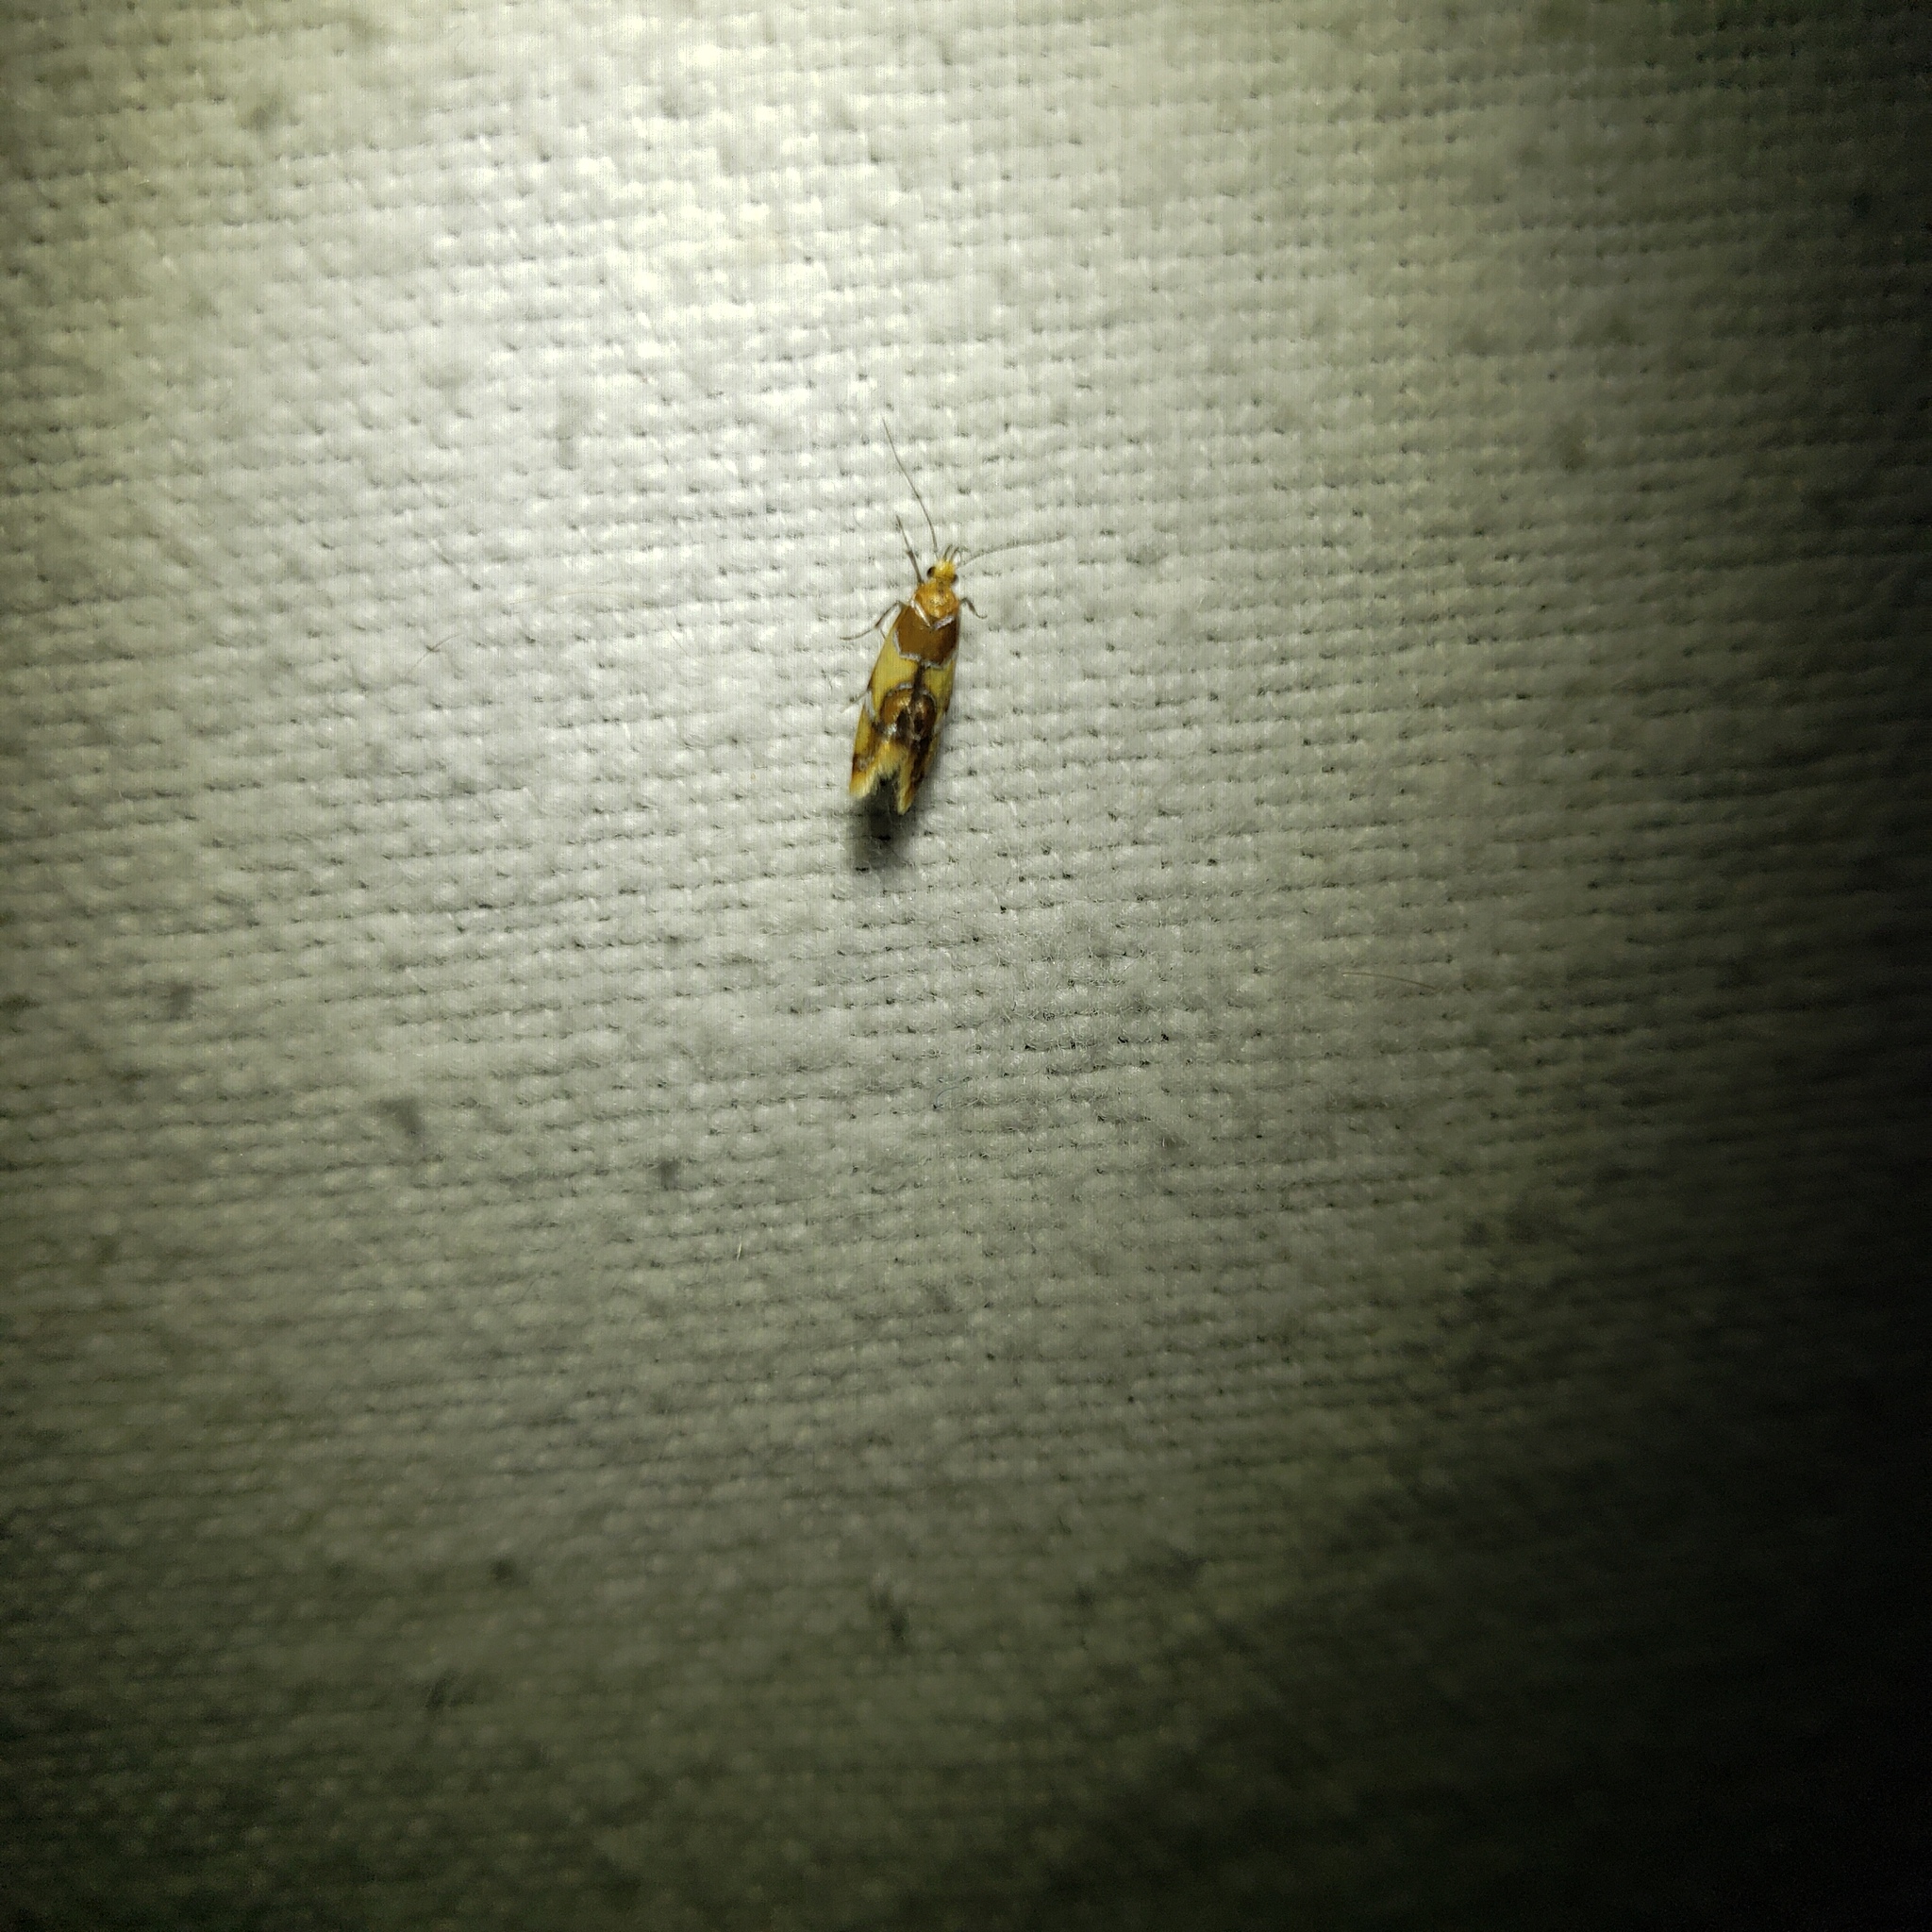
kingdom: Animalia
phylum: Arthropoda
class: Insecta
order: Lepidoptera
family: Oecophoridae
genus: Callima
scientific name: Callima argenticinctella
